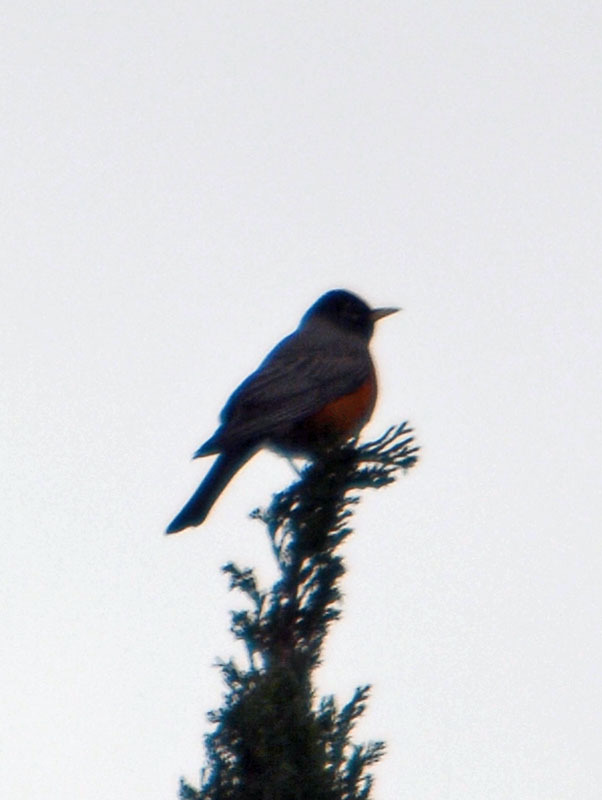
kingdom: Animalia
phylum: Chordata
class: Aves
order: Passeriformes
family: Turdidae
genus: Turdus
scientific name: Turdus migratorius
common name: American robin
